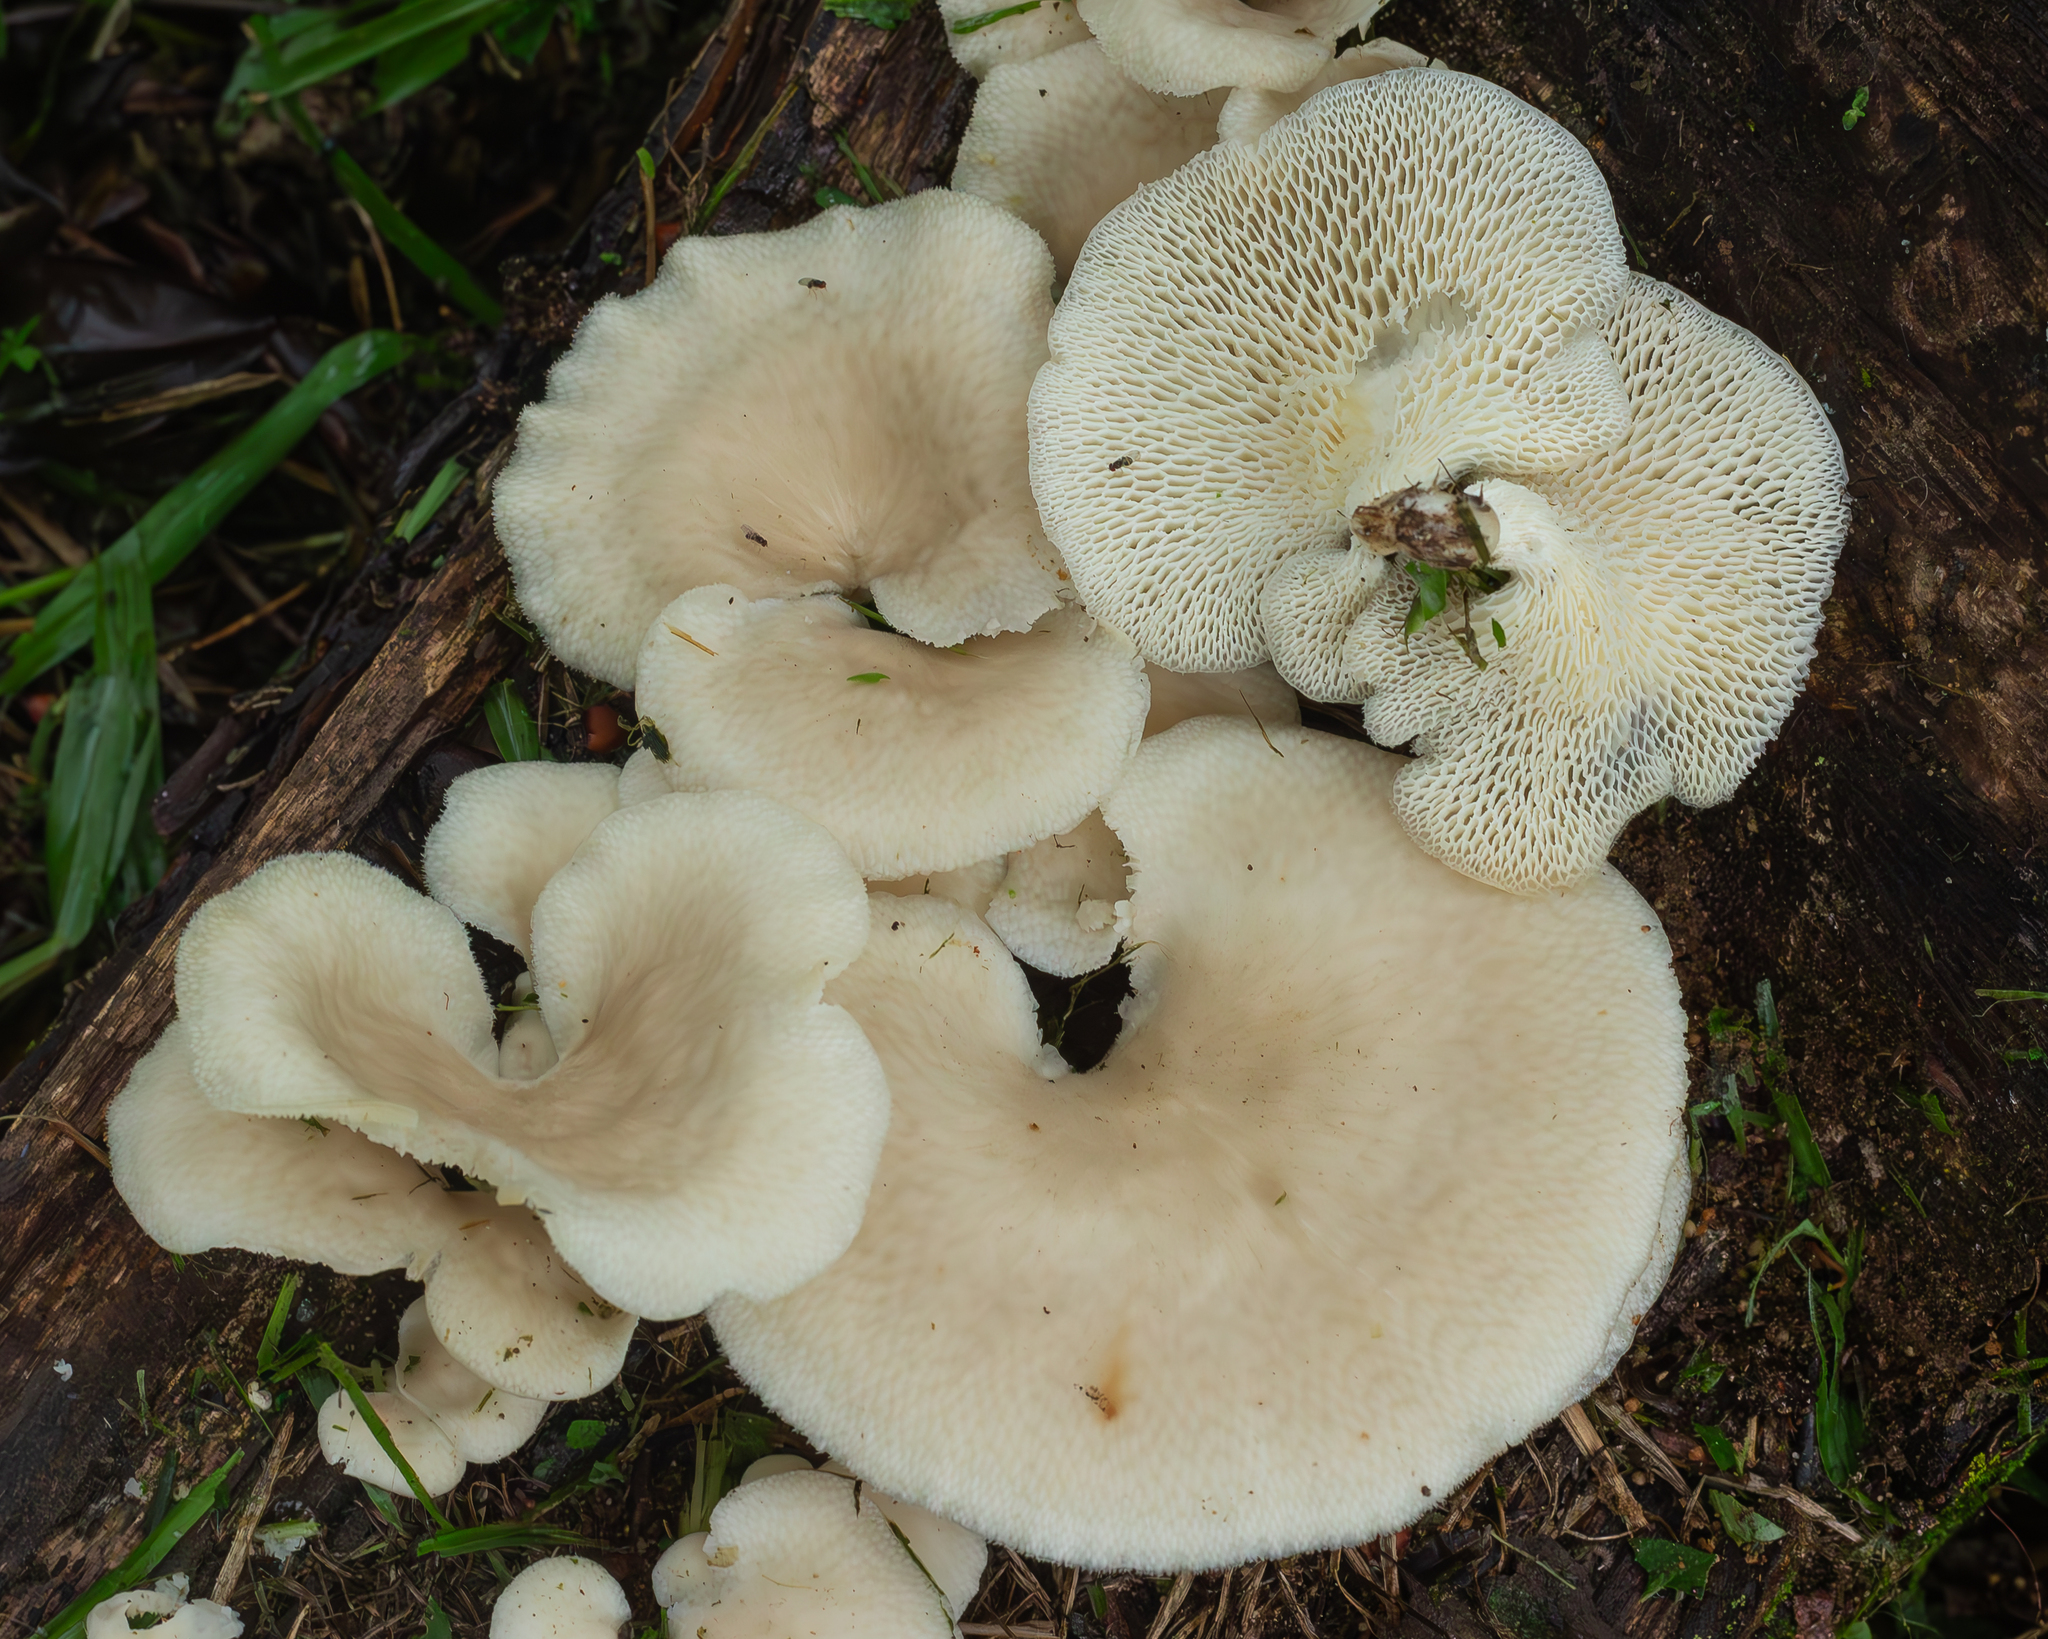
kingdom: Fungi
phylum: Basidiomycota
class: Agaricomycetes
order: Polyporales
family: Polyporaceae
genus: Favolus
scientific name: Favolus rugulosus
